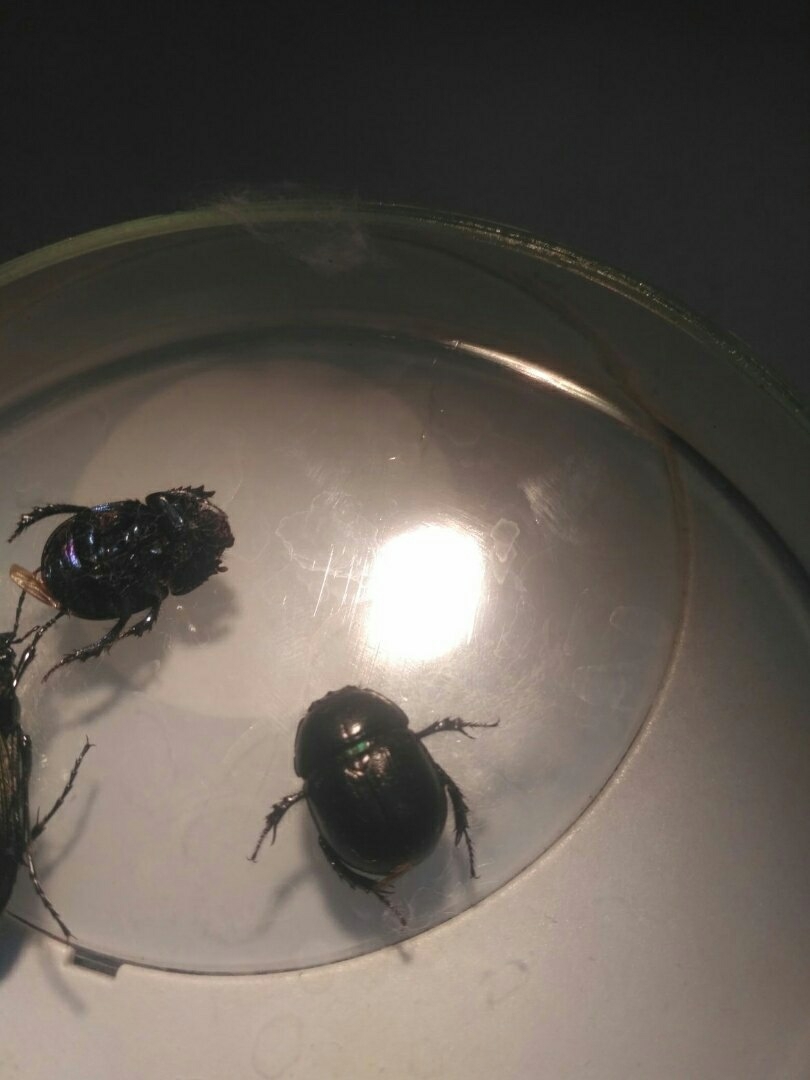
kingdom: Animalia
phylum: Arthropoda
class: Insecta
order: Coleoptera
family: Geotrupidae
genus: Anoplotrupes
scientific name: Anoplotrupes stercorosus
